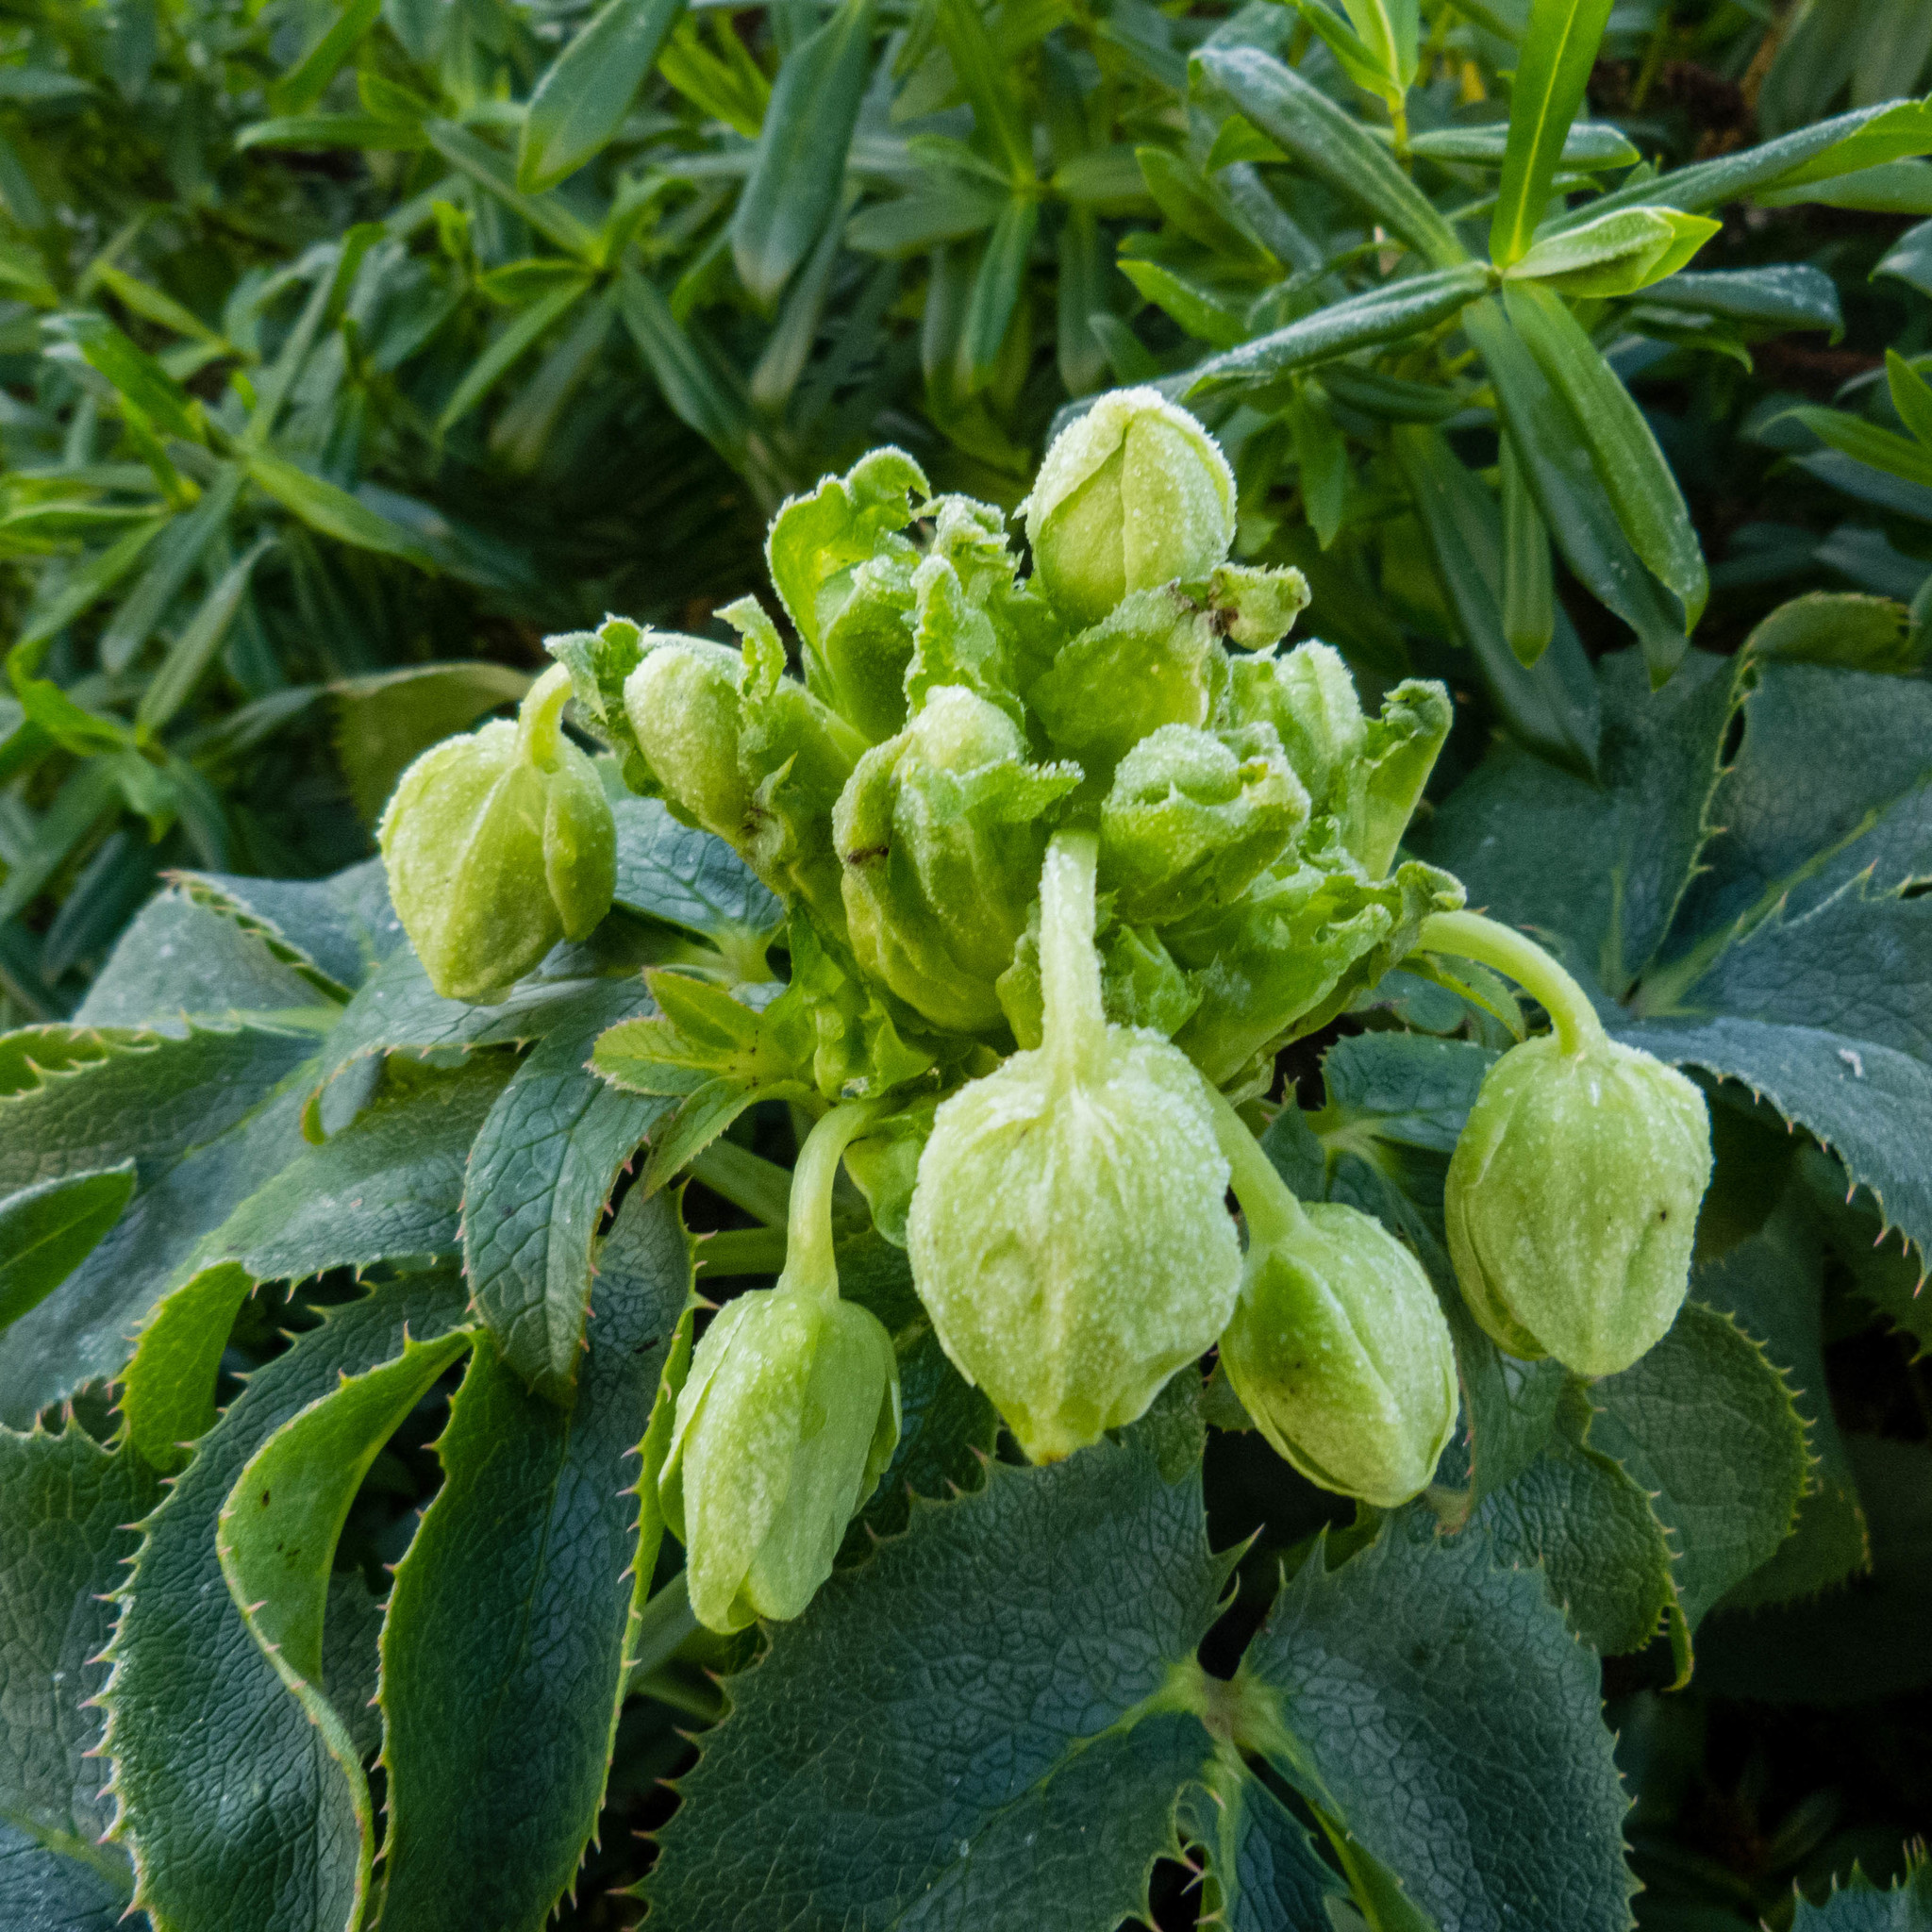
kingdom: Plantae
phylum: Tracheophyta
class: Magnoliopsida
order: Ranunculales
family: Ranunculaceae
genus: Helleborus
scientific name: Helleborus argutifolius
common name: Corsican hellebore
